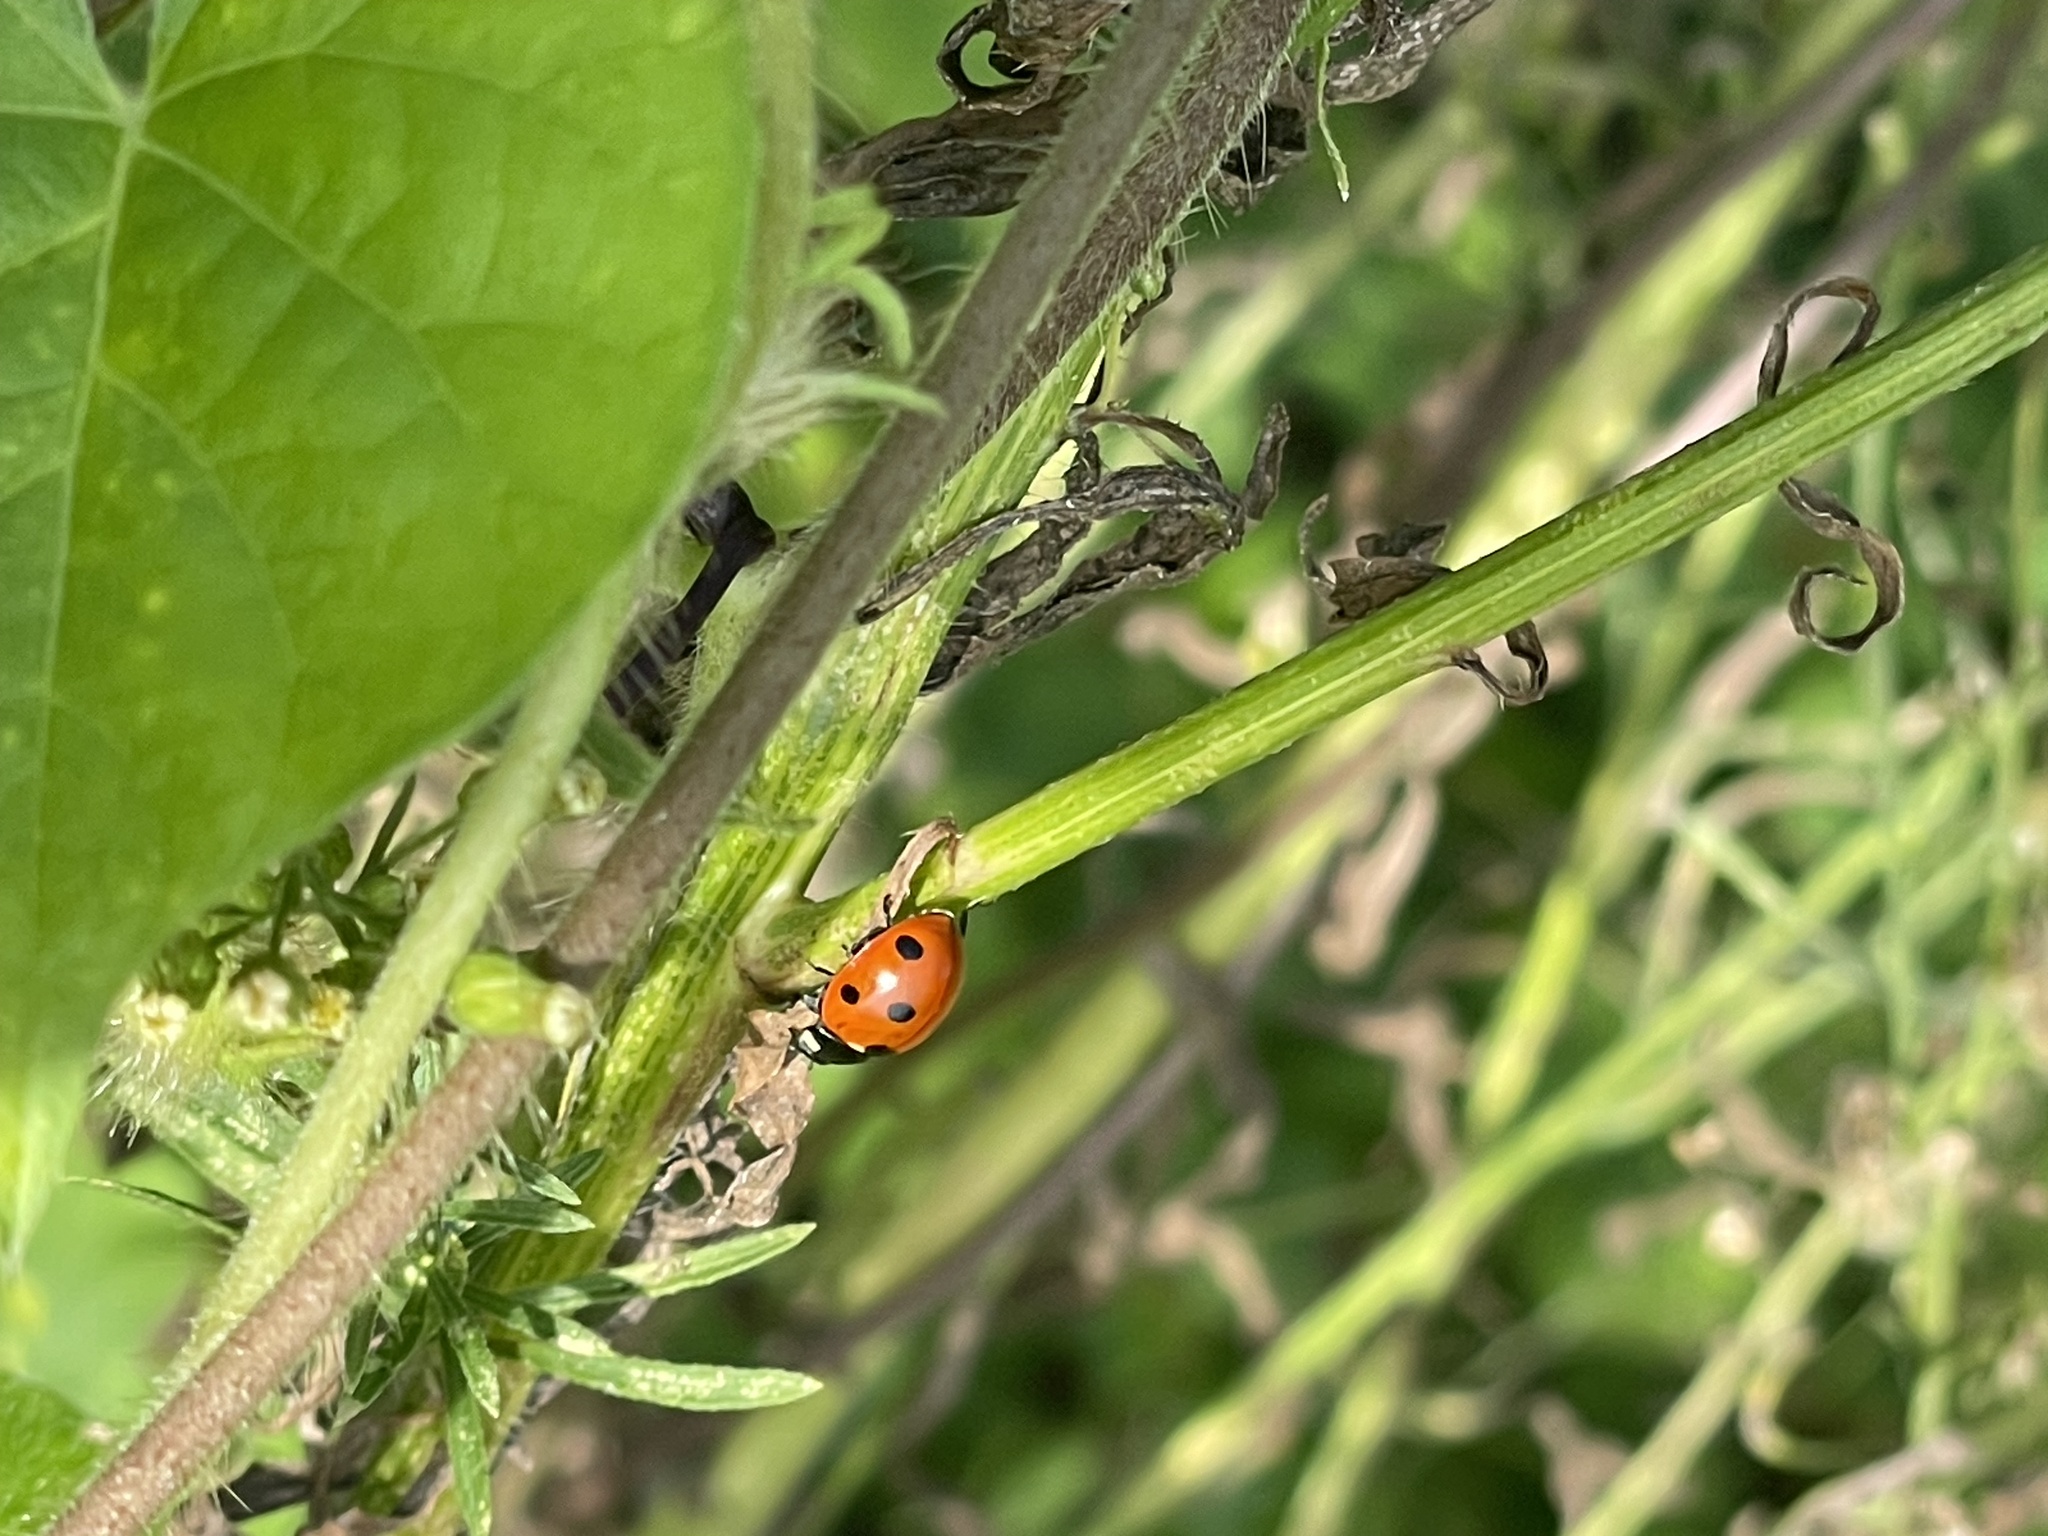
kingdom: Animalia
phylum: Arthropoda
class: Insecta
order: Coleoptera
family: Coccinellidae
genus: Coccinella
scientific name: Coccinella septempunctata
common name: Sevenspotted lady beetle
